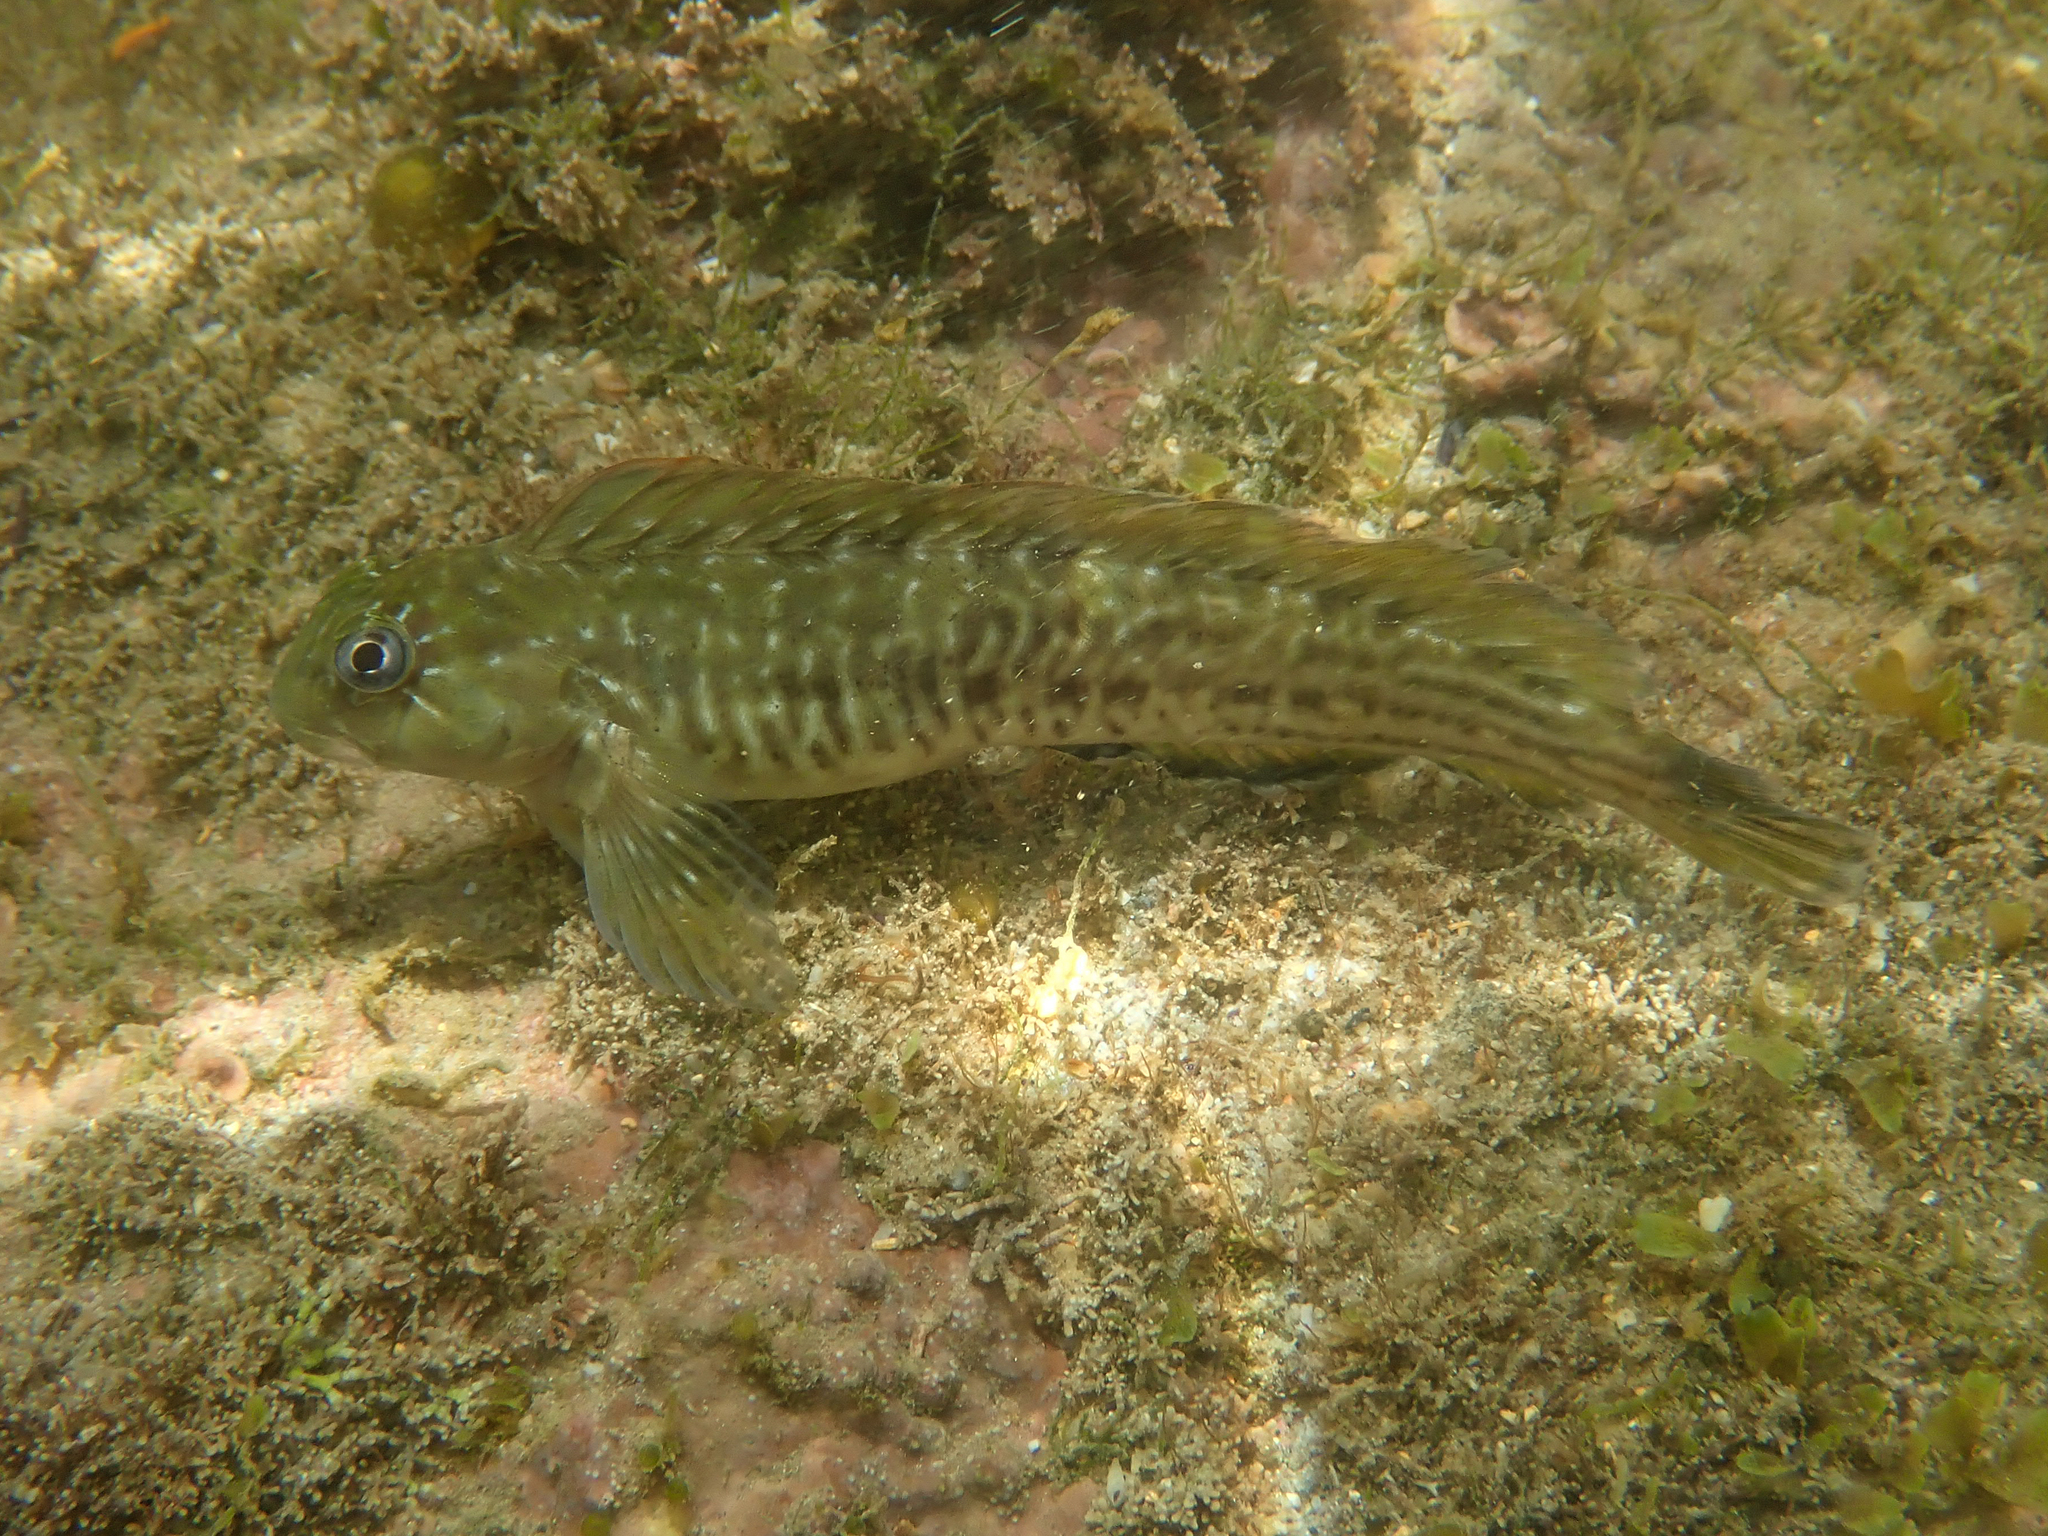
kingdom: Animalia
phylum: Chordata
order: Perciformes
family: Blenniidae
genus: Parablennius
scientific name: Parablennius parvicornis
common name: Rock-pool blenny
